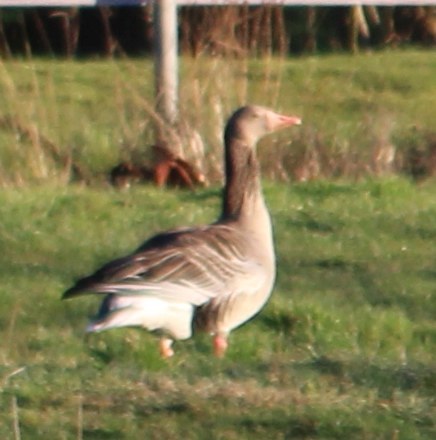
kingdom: Animalia
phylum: Chordata
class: Aves
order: Anseriformes
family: Anatidae
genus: Anser
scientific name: Anser anser
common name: Greylag goose
